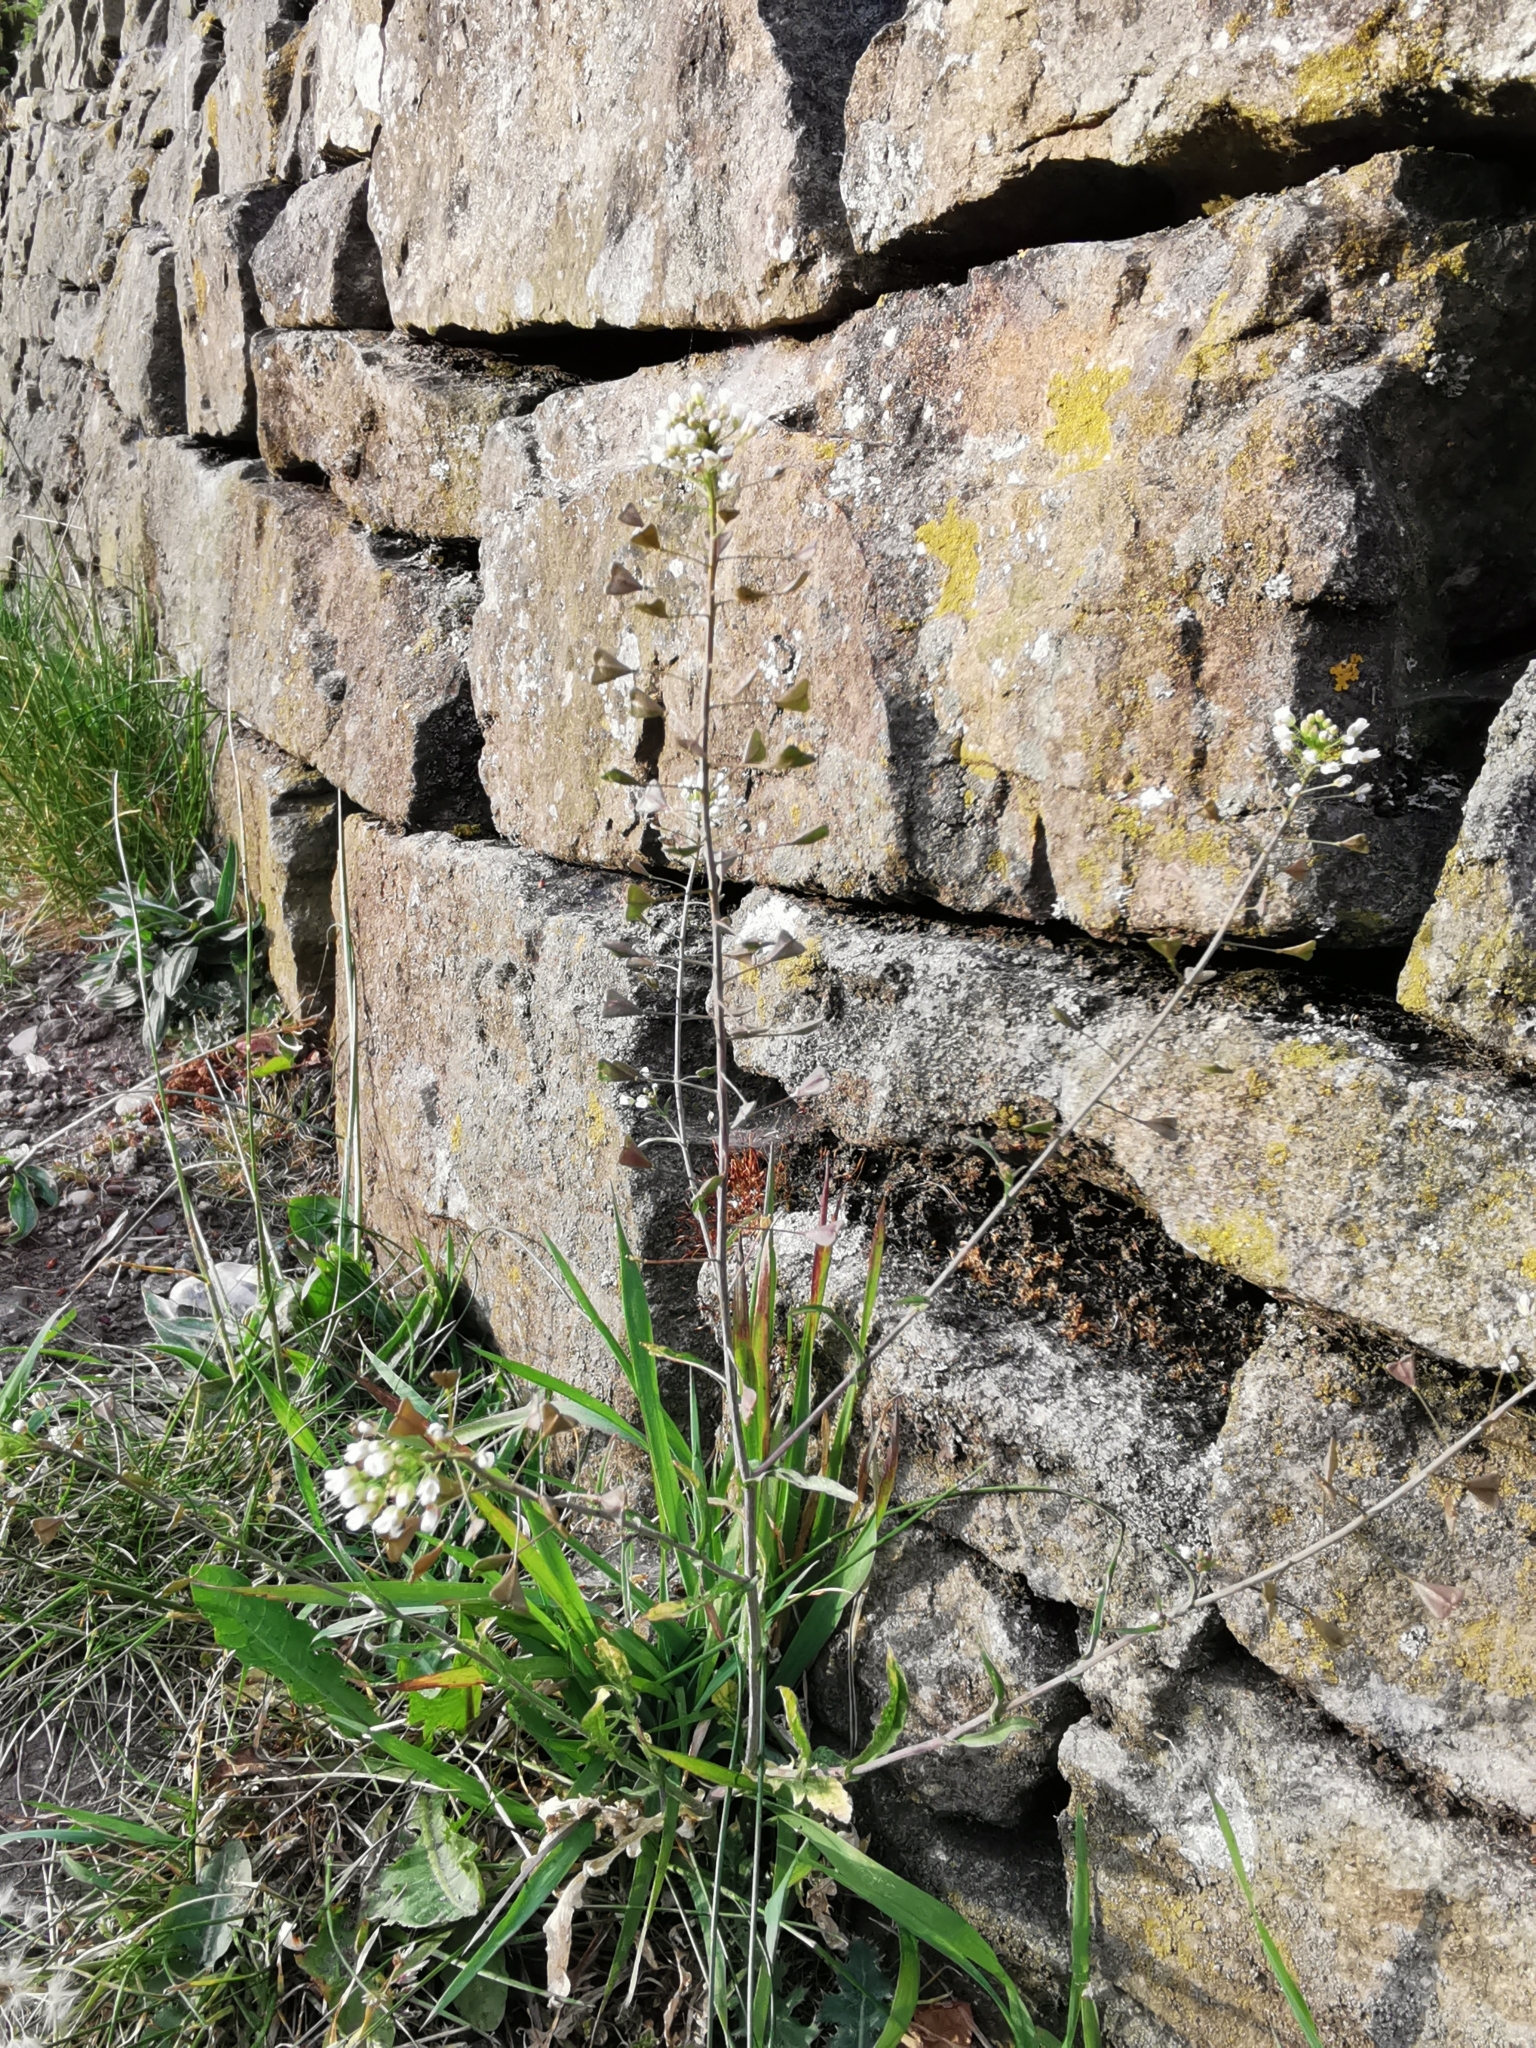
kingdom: Plantae
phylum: Tracheophyta
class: Magnoliopsida
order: Brassicales
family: Brassicaceae
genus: Capsella
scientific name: Capsella bursa-pastoris
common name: Shepherd's purse
